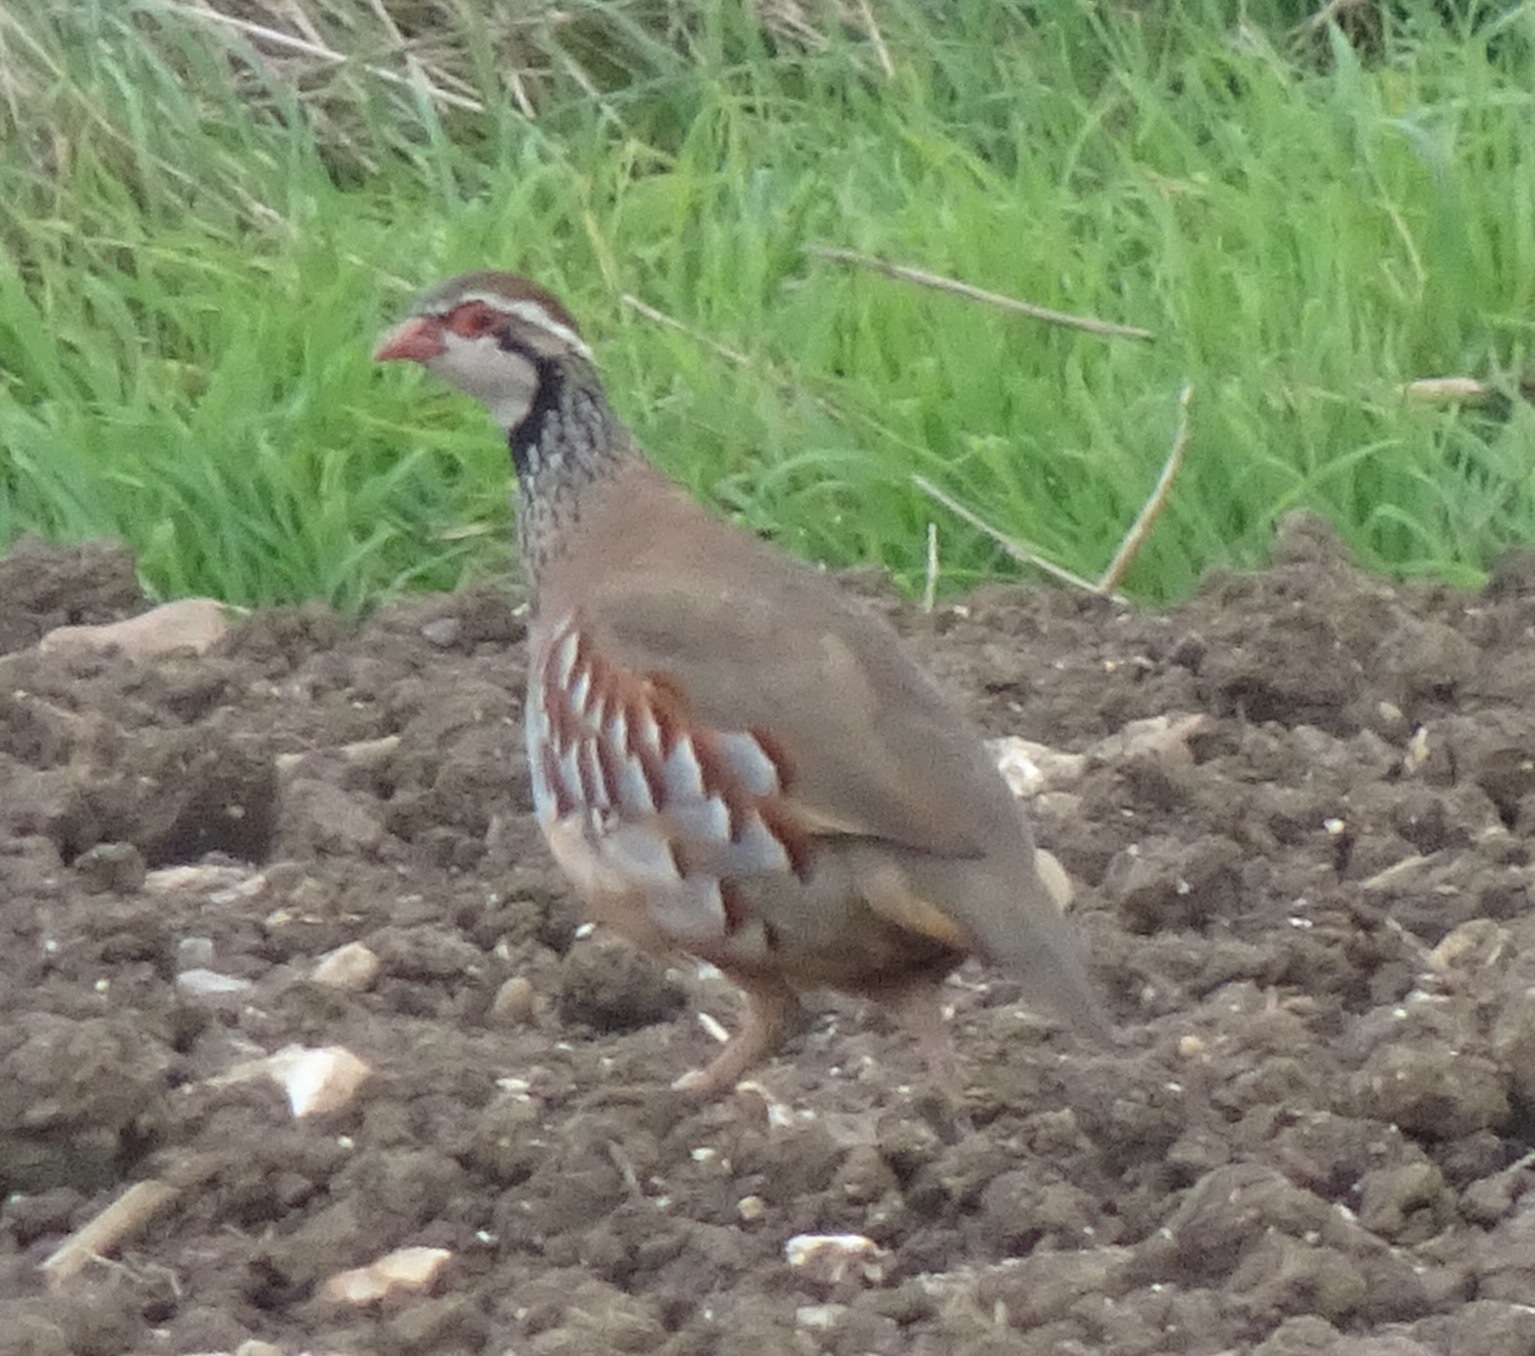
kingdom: Animalia
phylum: Chordata
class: Aves
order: Galliformes
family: Phasianidae
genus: Alectoris
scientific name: Alectoris rufa
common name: Red-legged partridge
